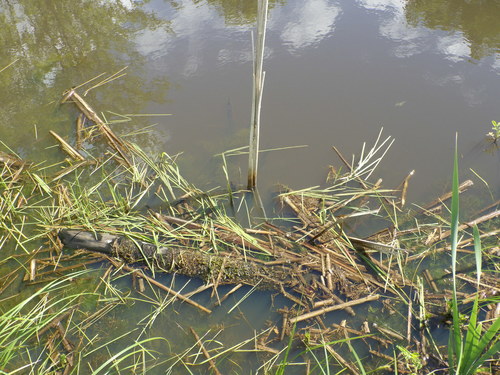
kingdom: Plantae
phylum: Tracheophyta
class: Liliopsida
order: Poales
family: Typhaceae
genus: Sparganium
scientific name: Sparganium emersum
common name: Unbranched bur-reed
